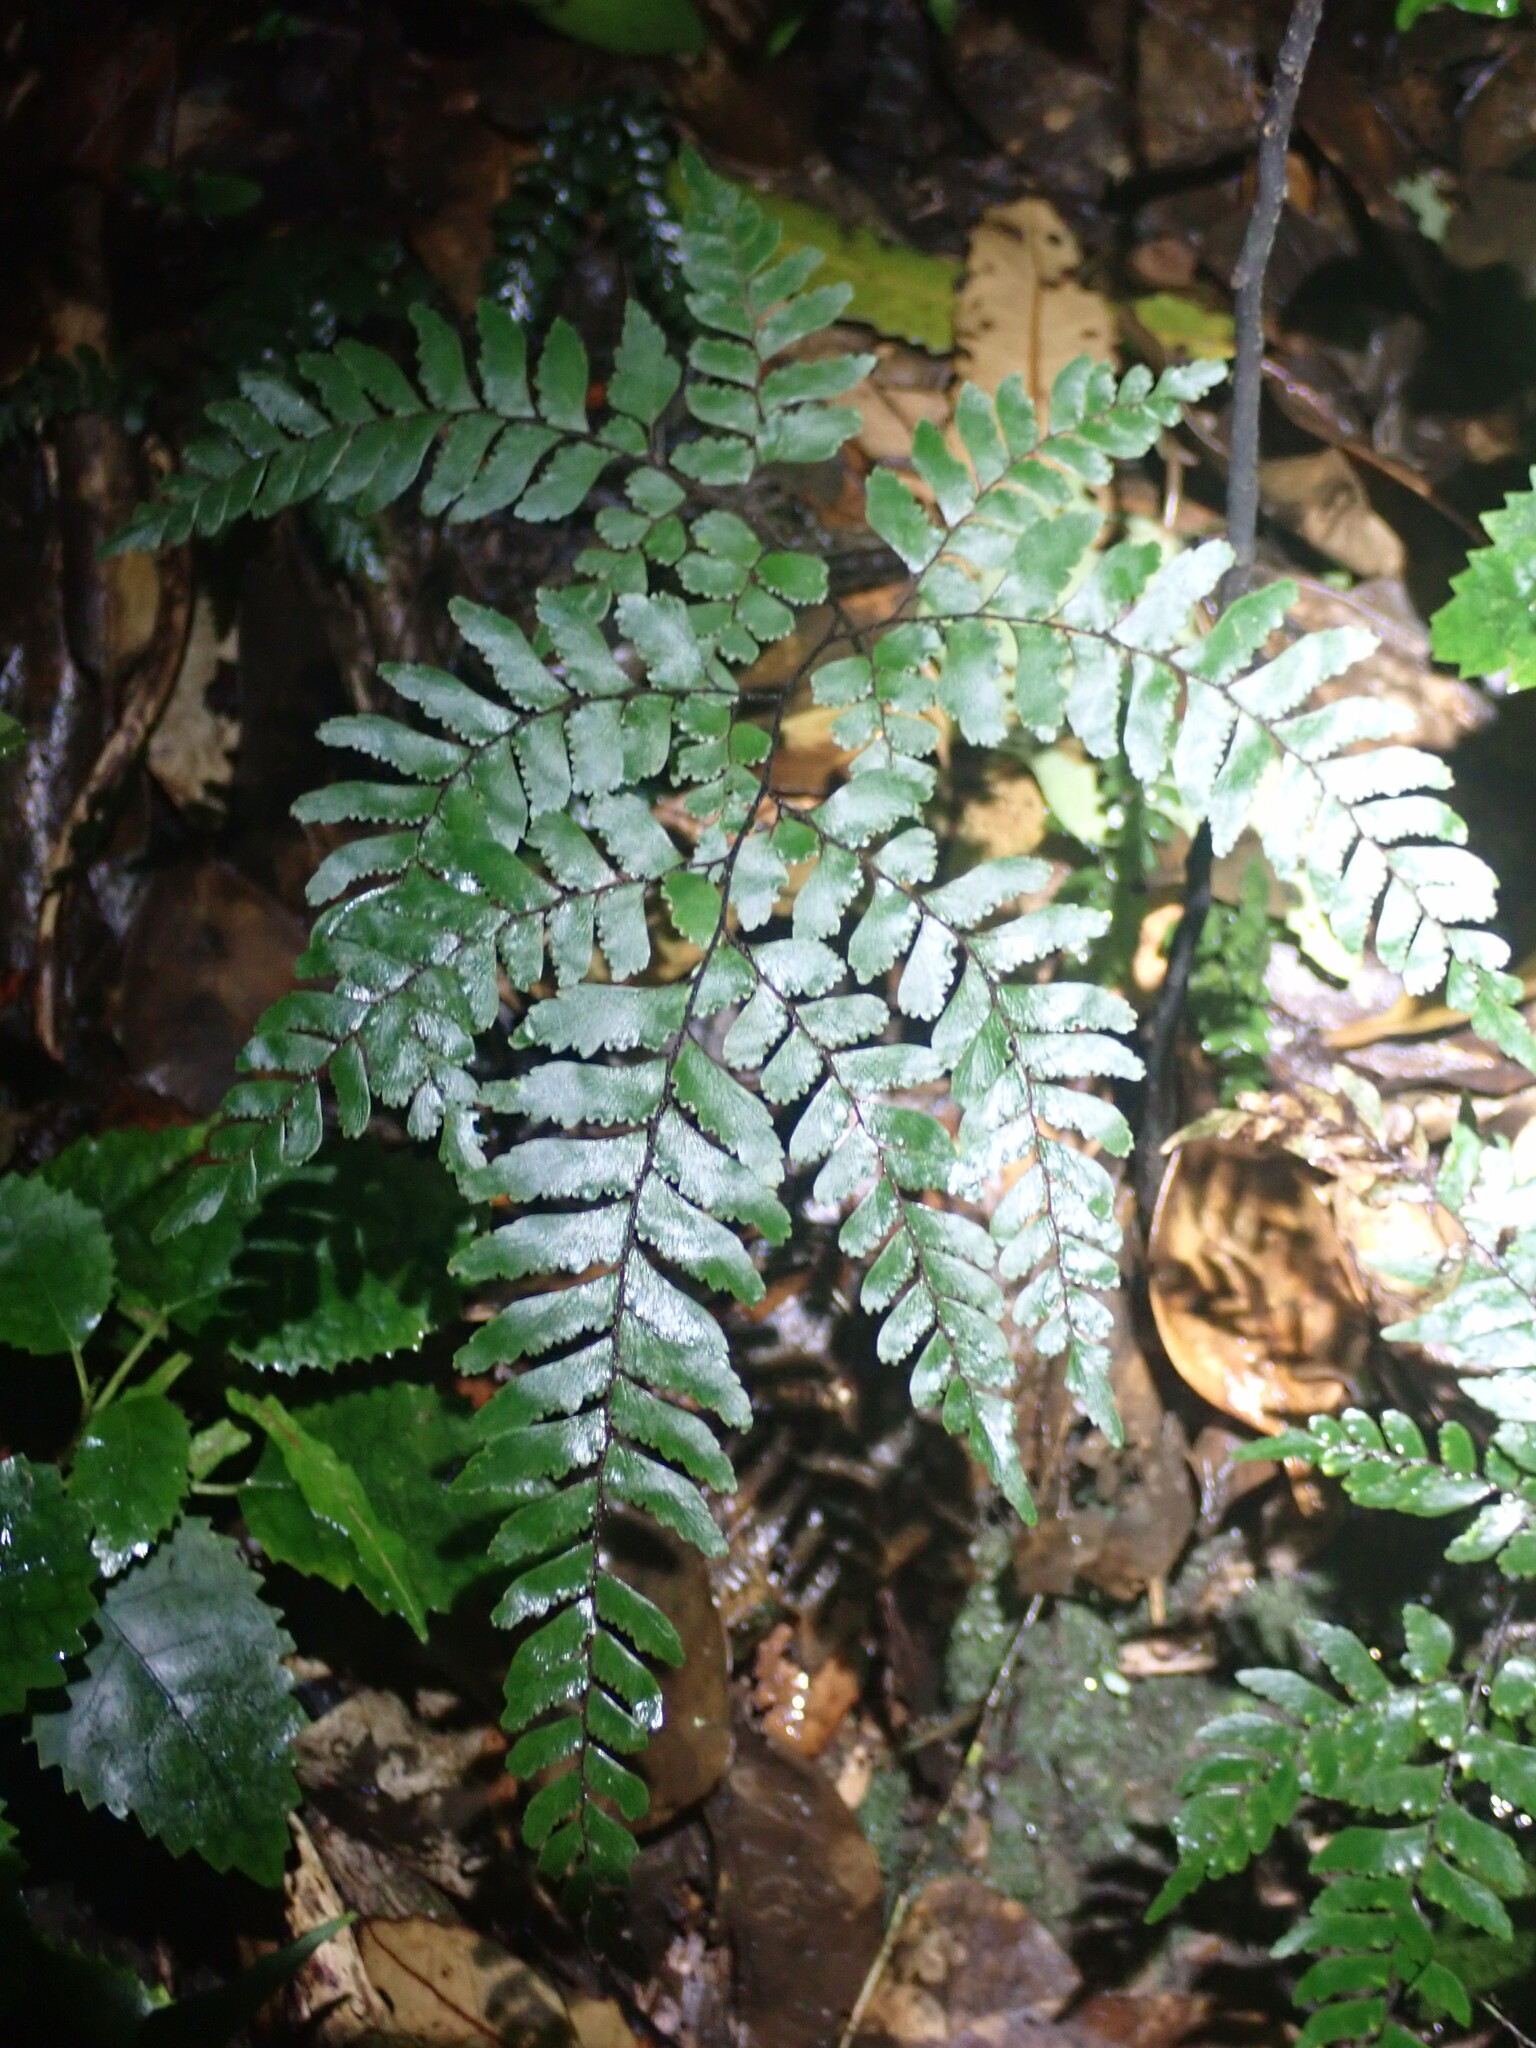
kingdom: Plantae
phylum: Tracheophyta
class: Polypodiopsida
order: Polypodiales
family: Pteridaceae
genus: Adiantum
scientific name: Adiantum fulvum
